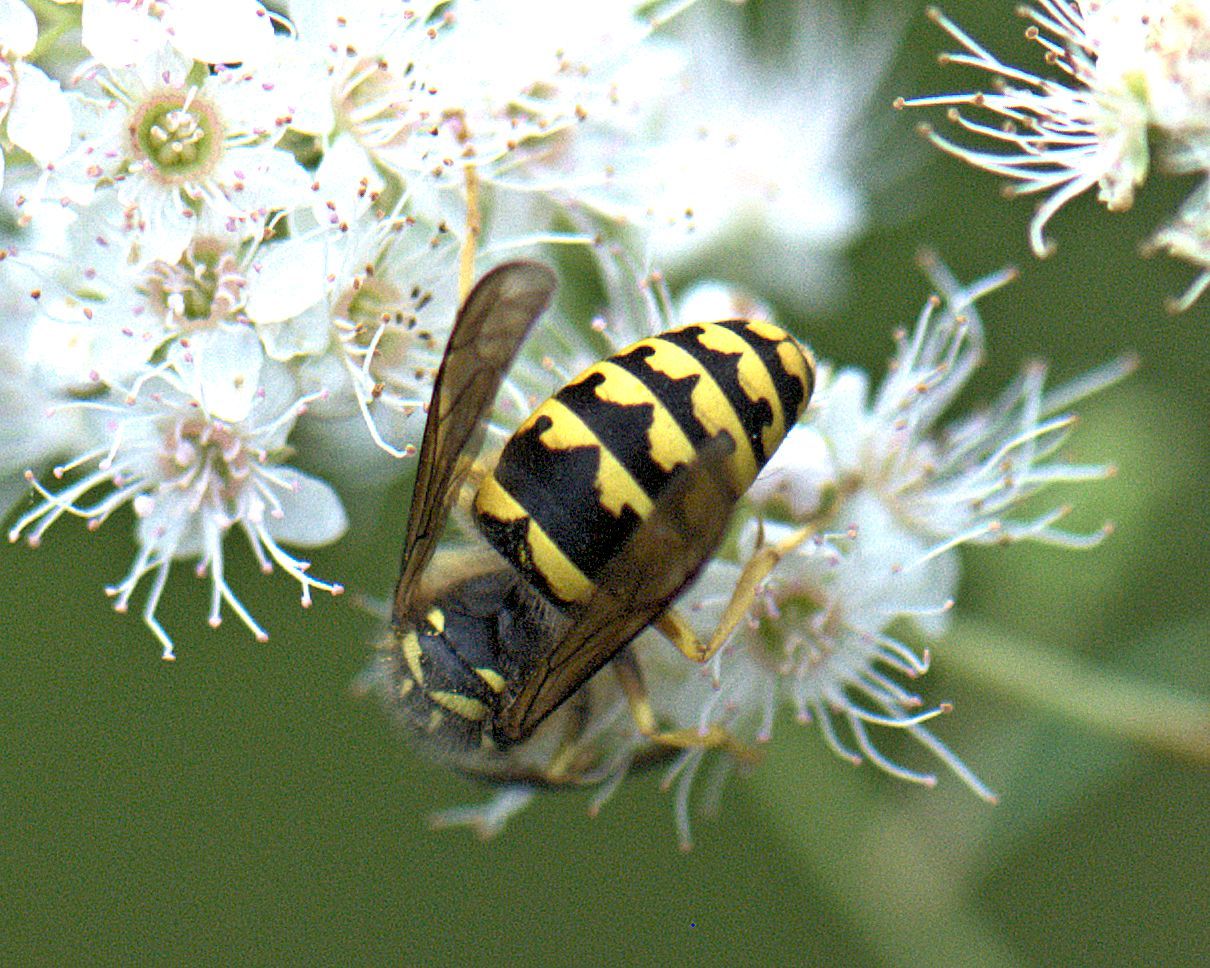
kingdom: Animalia
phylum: Arthropoda
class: Insecta
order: Hymenoptera
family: Vespidae
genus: Dolichovespula
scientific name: Dolichovespula arenaria
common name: Aerial yellowjacket
